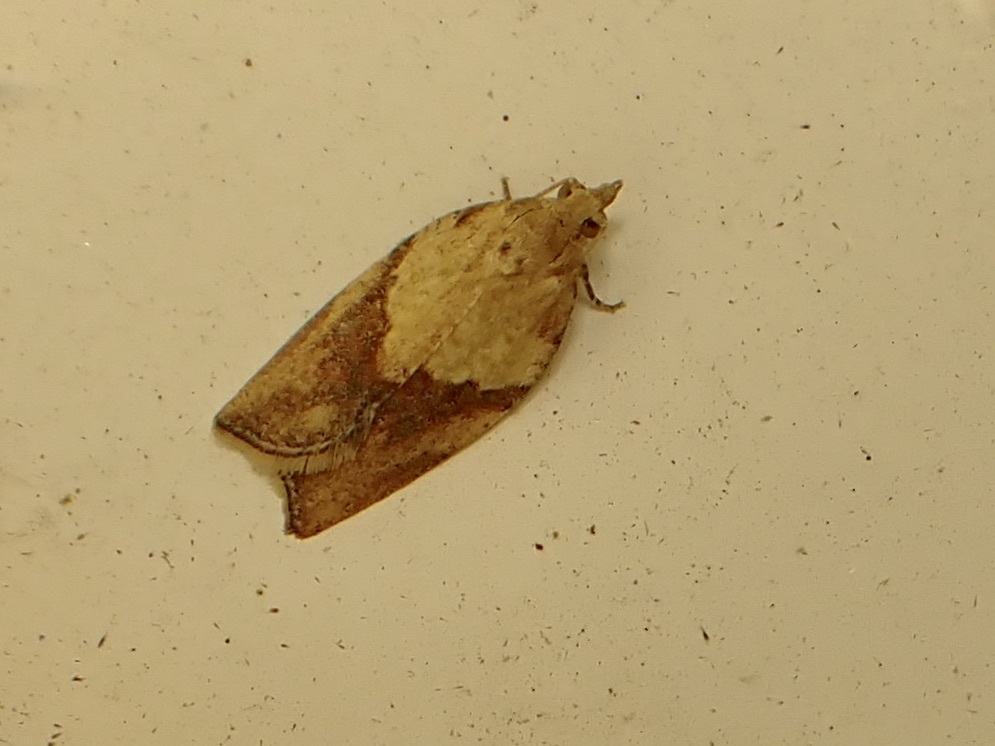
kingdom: Animalia
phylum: Arthropoda
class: Insecta
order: Lepidoptera
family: Tortricidae
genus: Epiphyas
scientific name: Epiphyas postvittana
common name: Light brown apple moth
